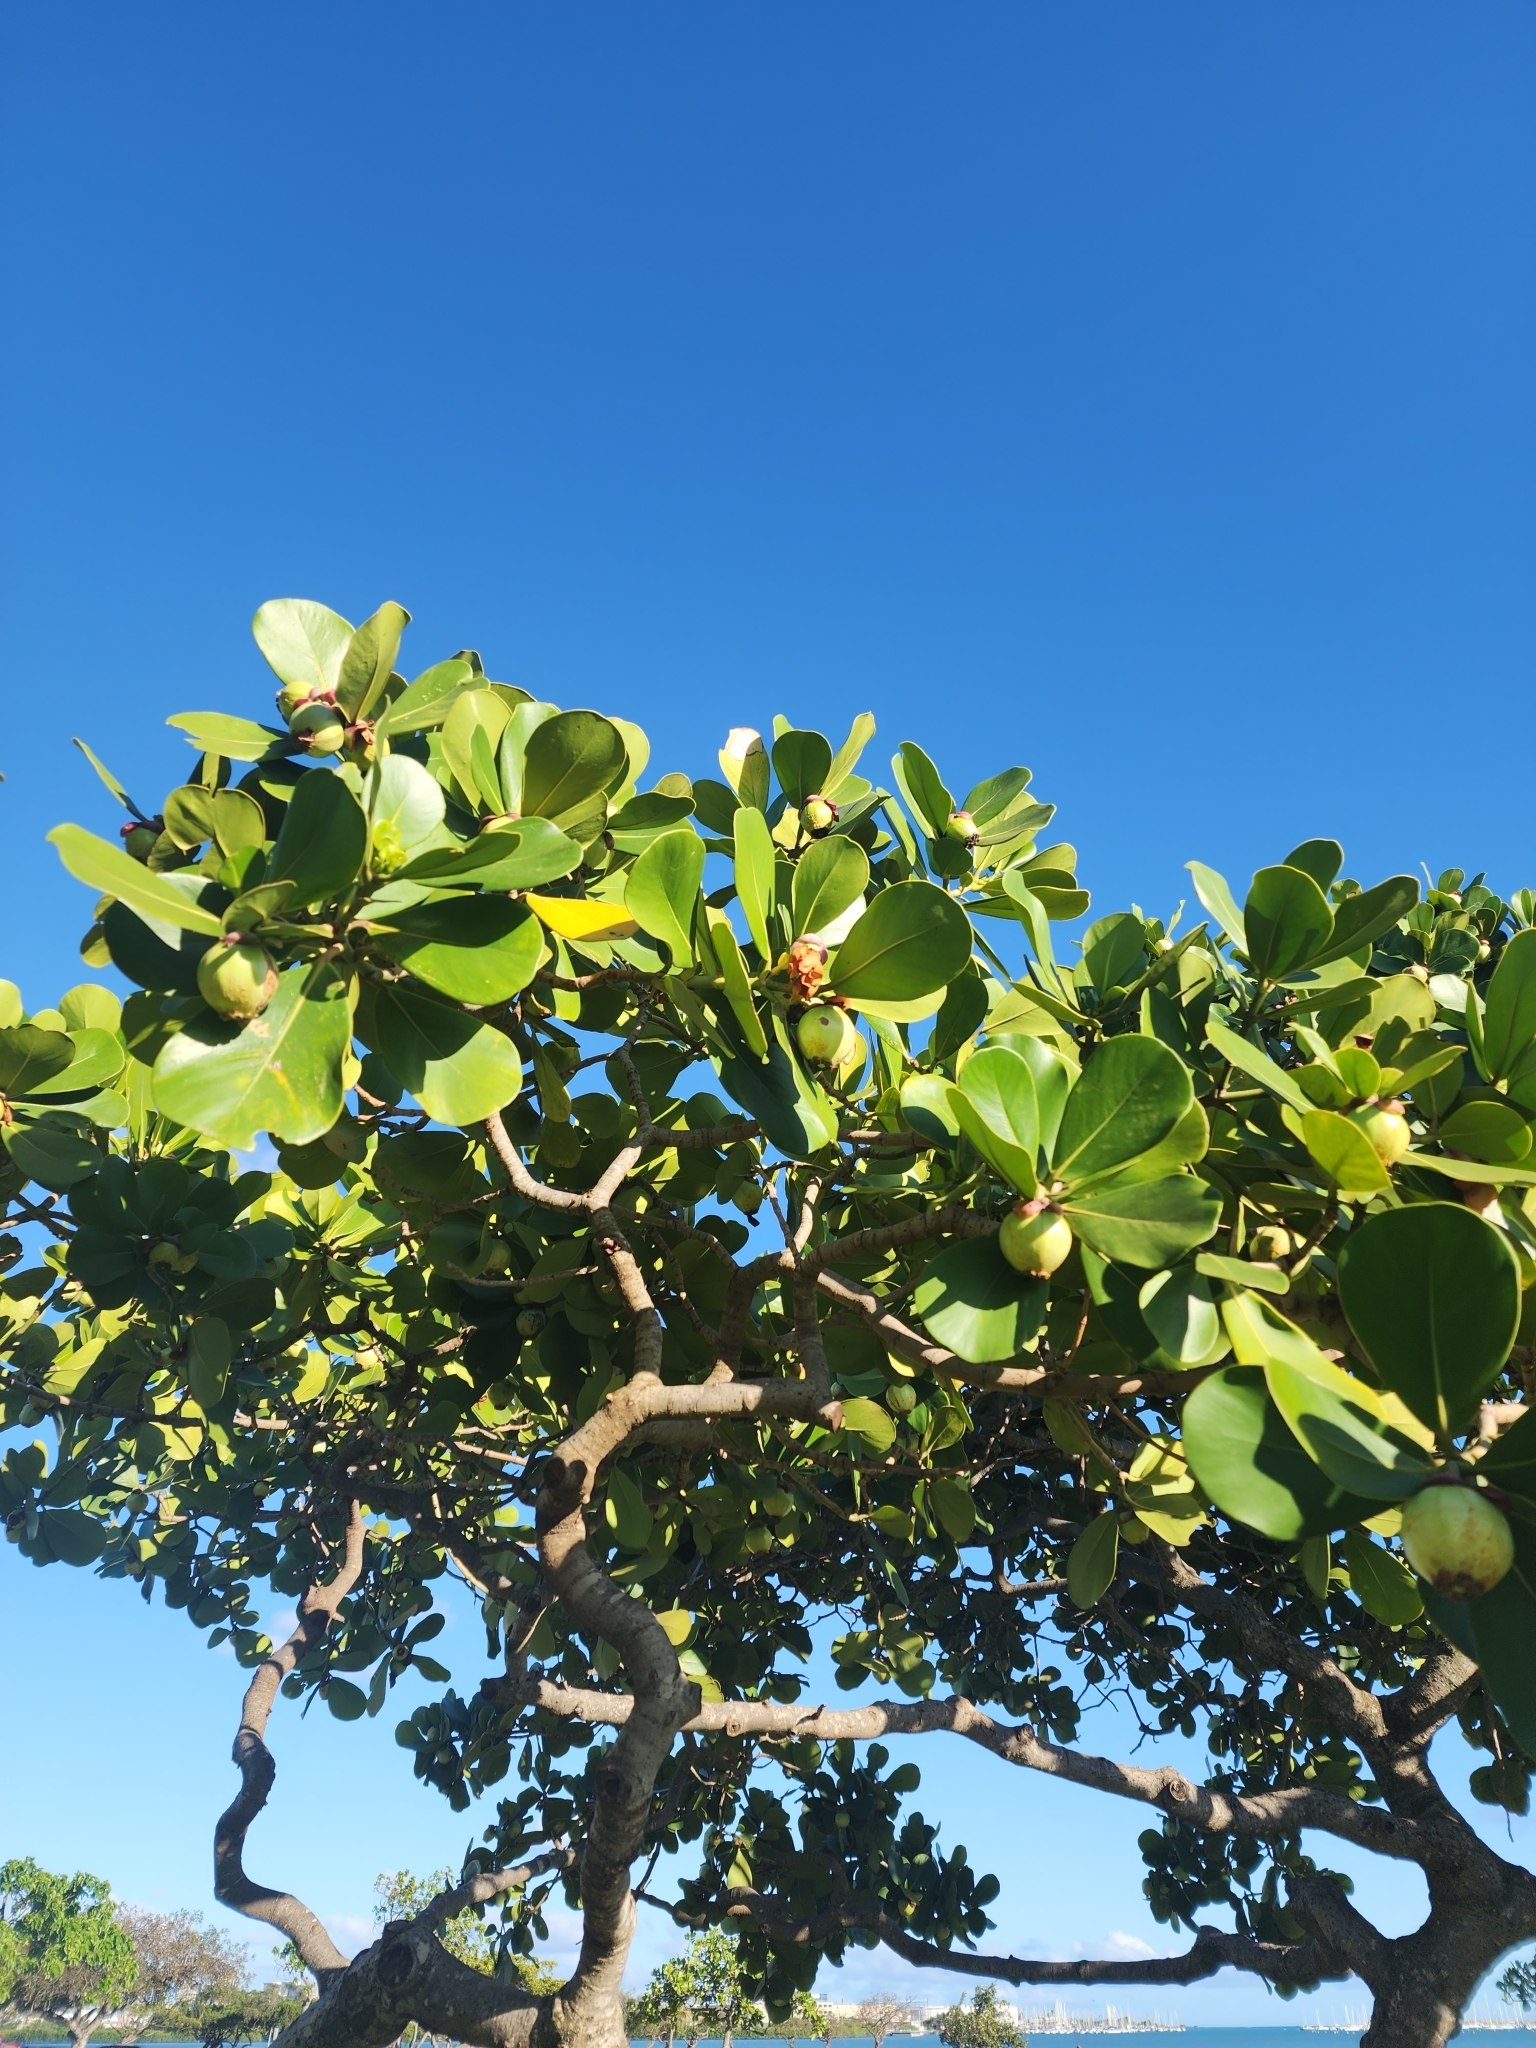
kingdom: Plantae
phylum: Tracheophyta
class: Magnoliopsida
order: Malpighiales
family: Clusiaceae
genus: Clusia
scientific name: Clusia rosea
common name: Scotch attorney
